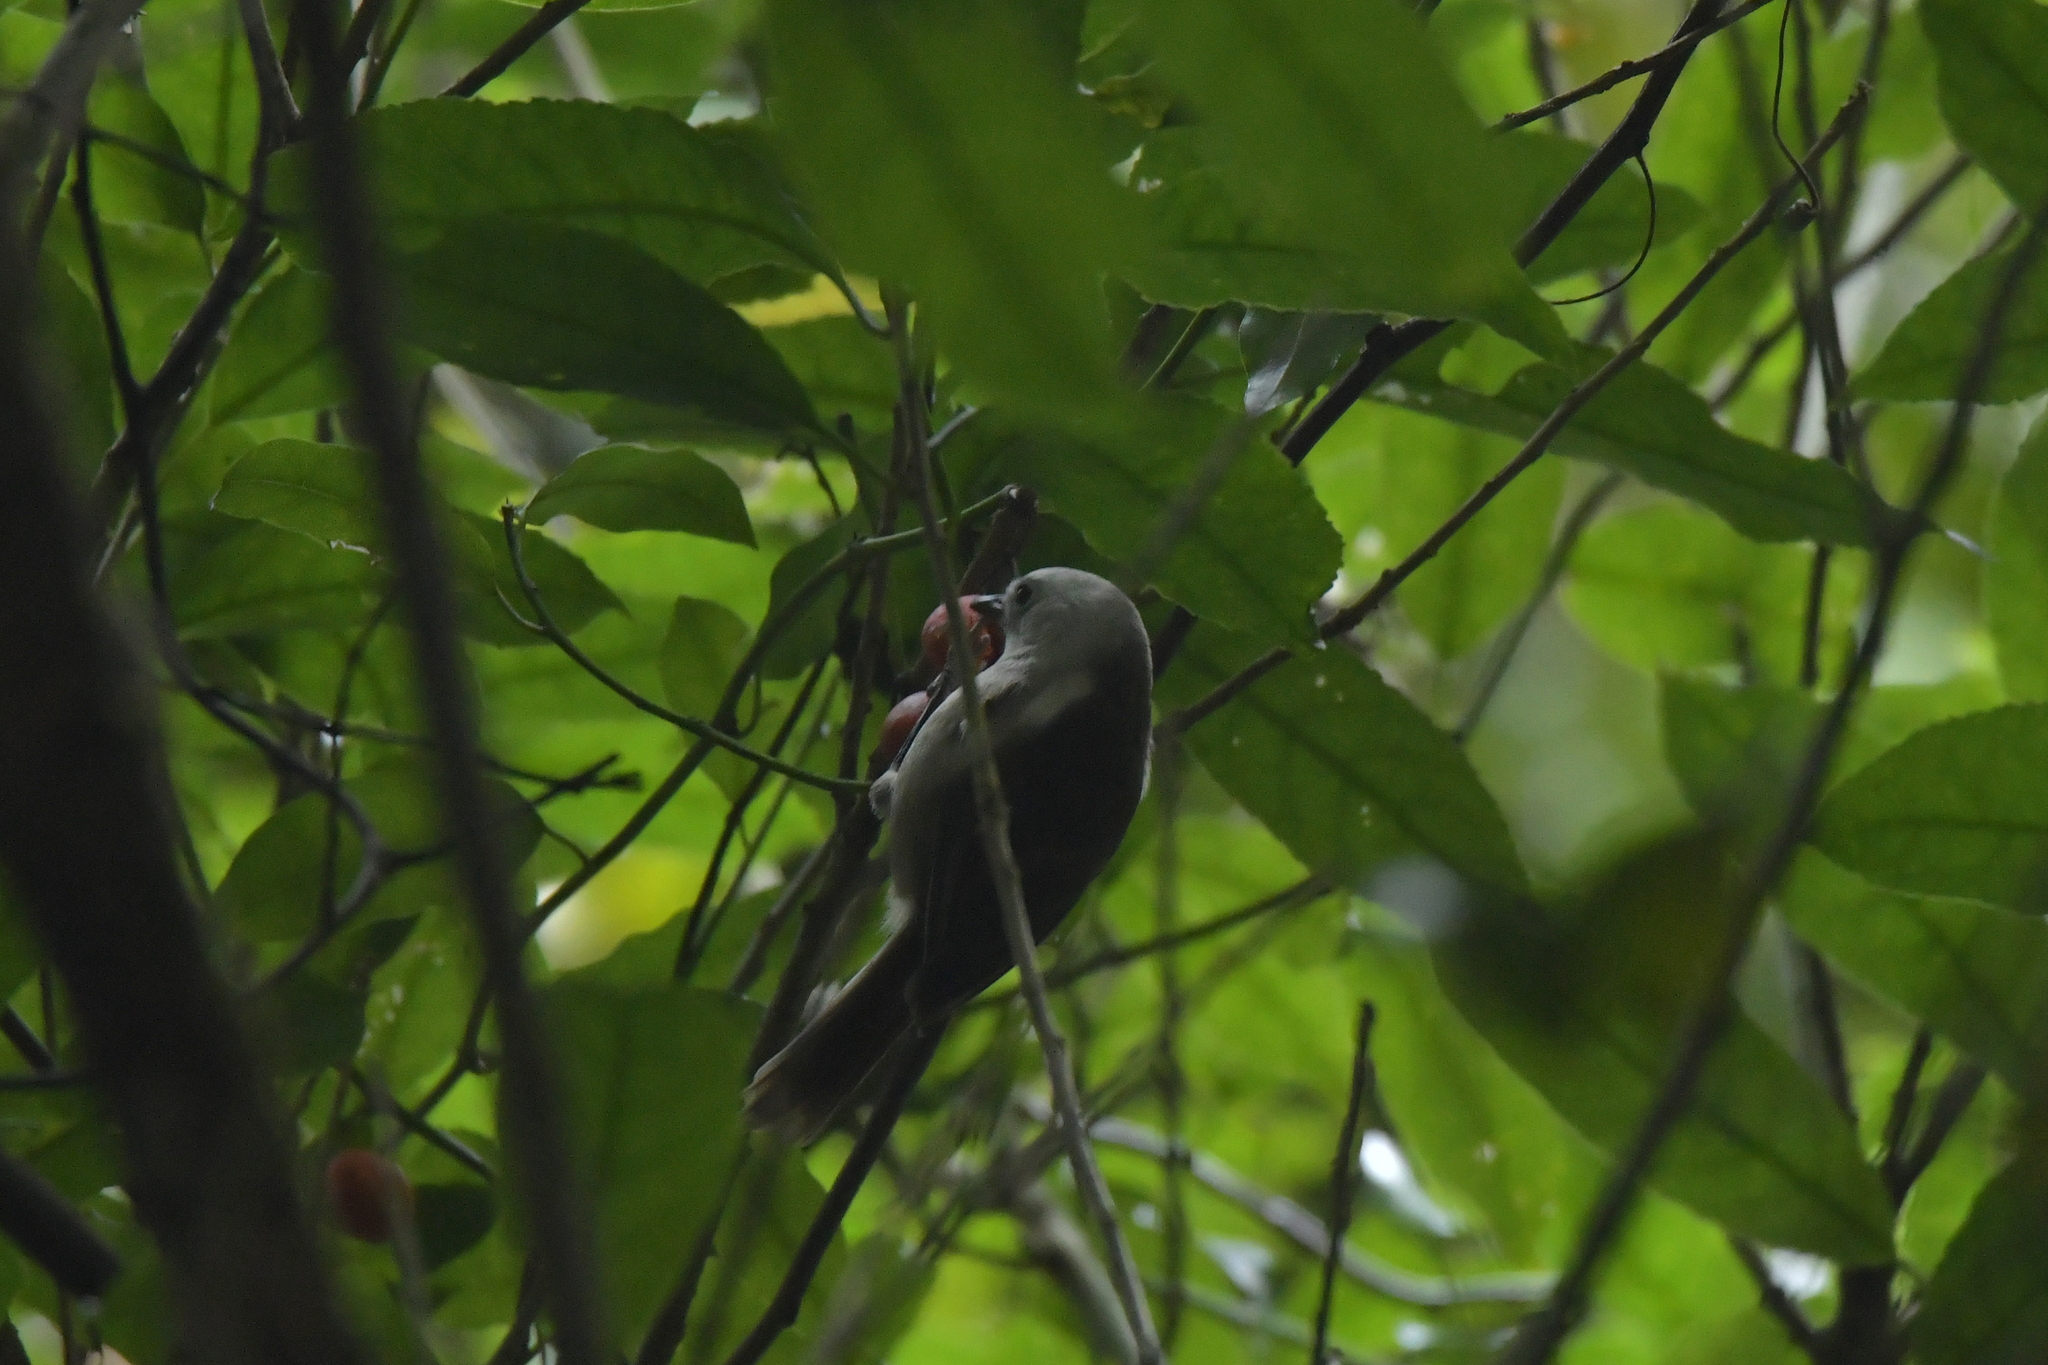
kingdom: Animalia
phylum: Chordata
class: Aves
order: Passeriformes
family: Acanthizidae
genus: Mohoua
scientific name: Mohoua albicilla
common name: Whitehead
